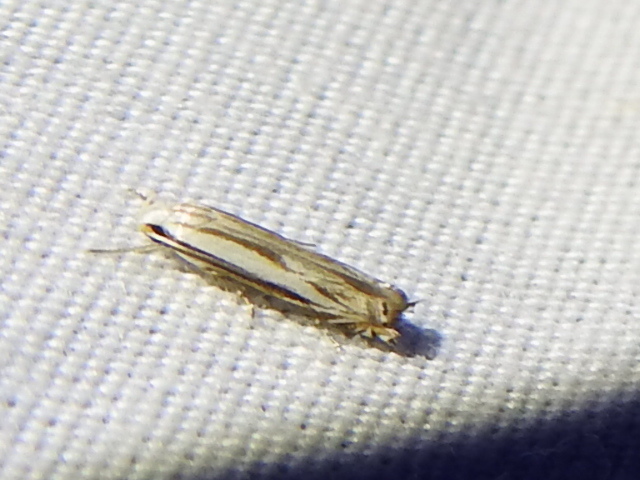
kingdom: Animalia
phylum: Arthropoda
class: Insecta
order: Lepidoptera
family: Gelechiidae
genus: Polyhymno
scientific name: Polyhymno luteostrigella
